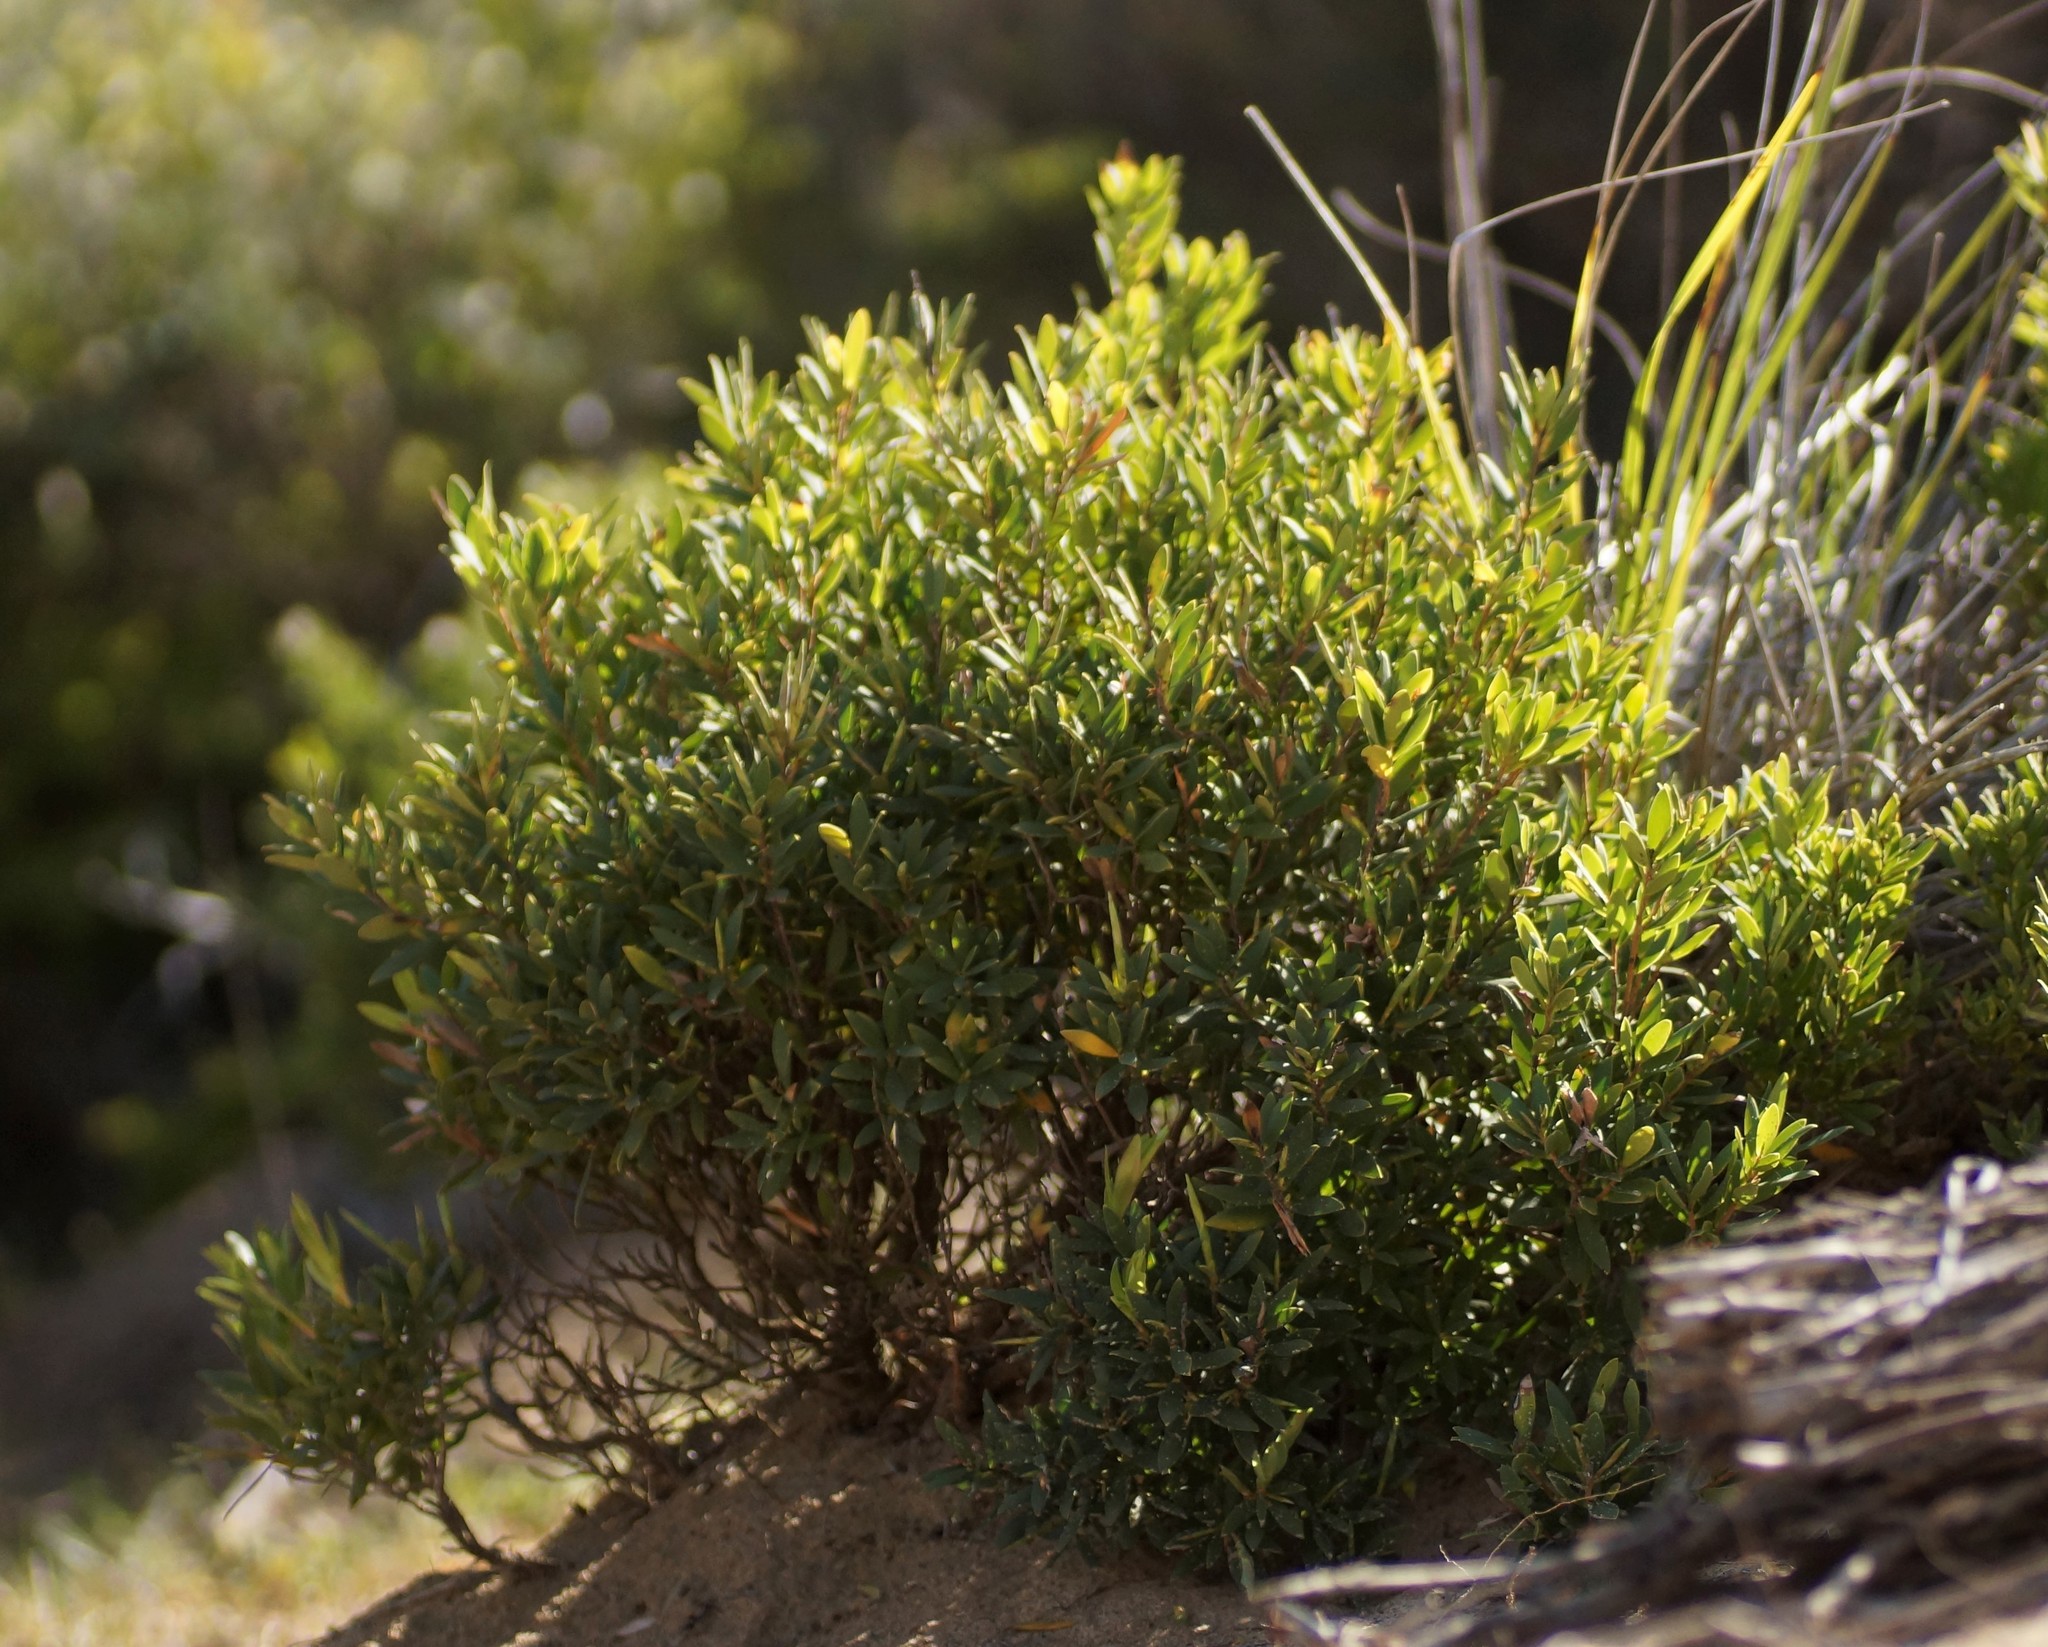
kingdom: Plantae
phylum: Tracheophyta
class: Magnoliopsida
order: Ericales
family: Ericaceae
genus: Leptecophylla
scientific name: Leptecophylla parvifolia
